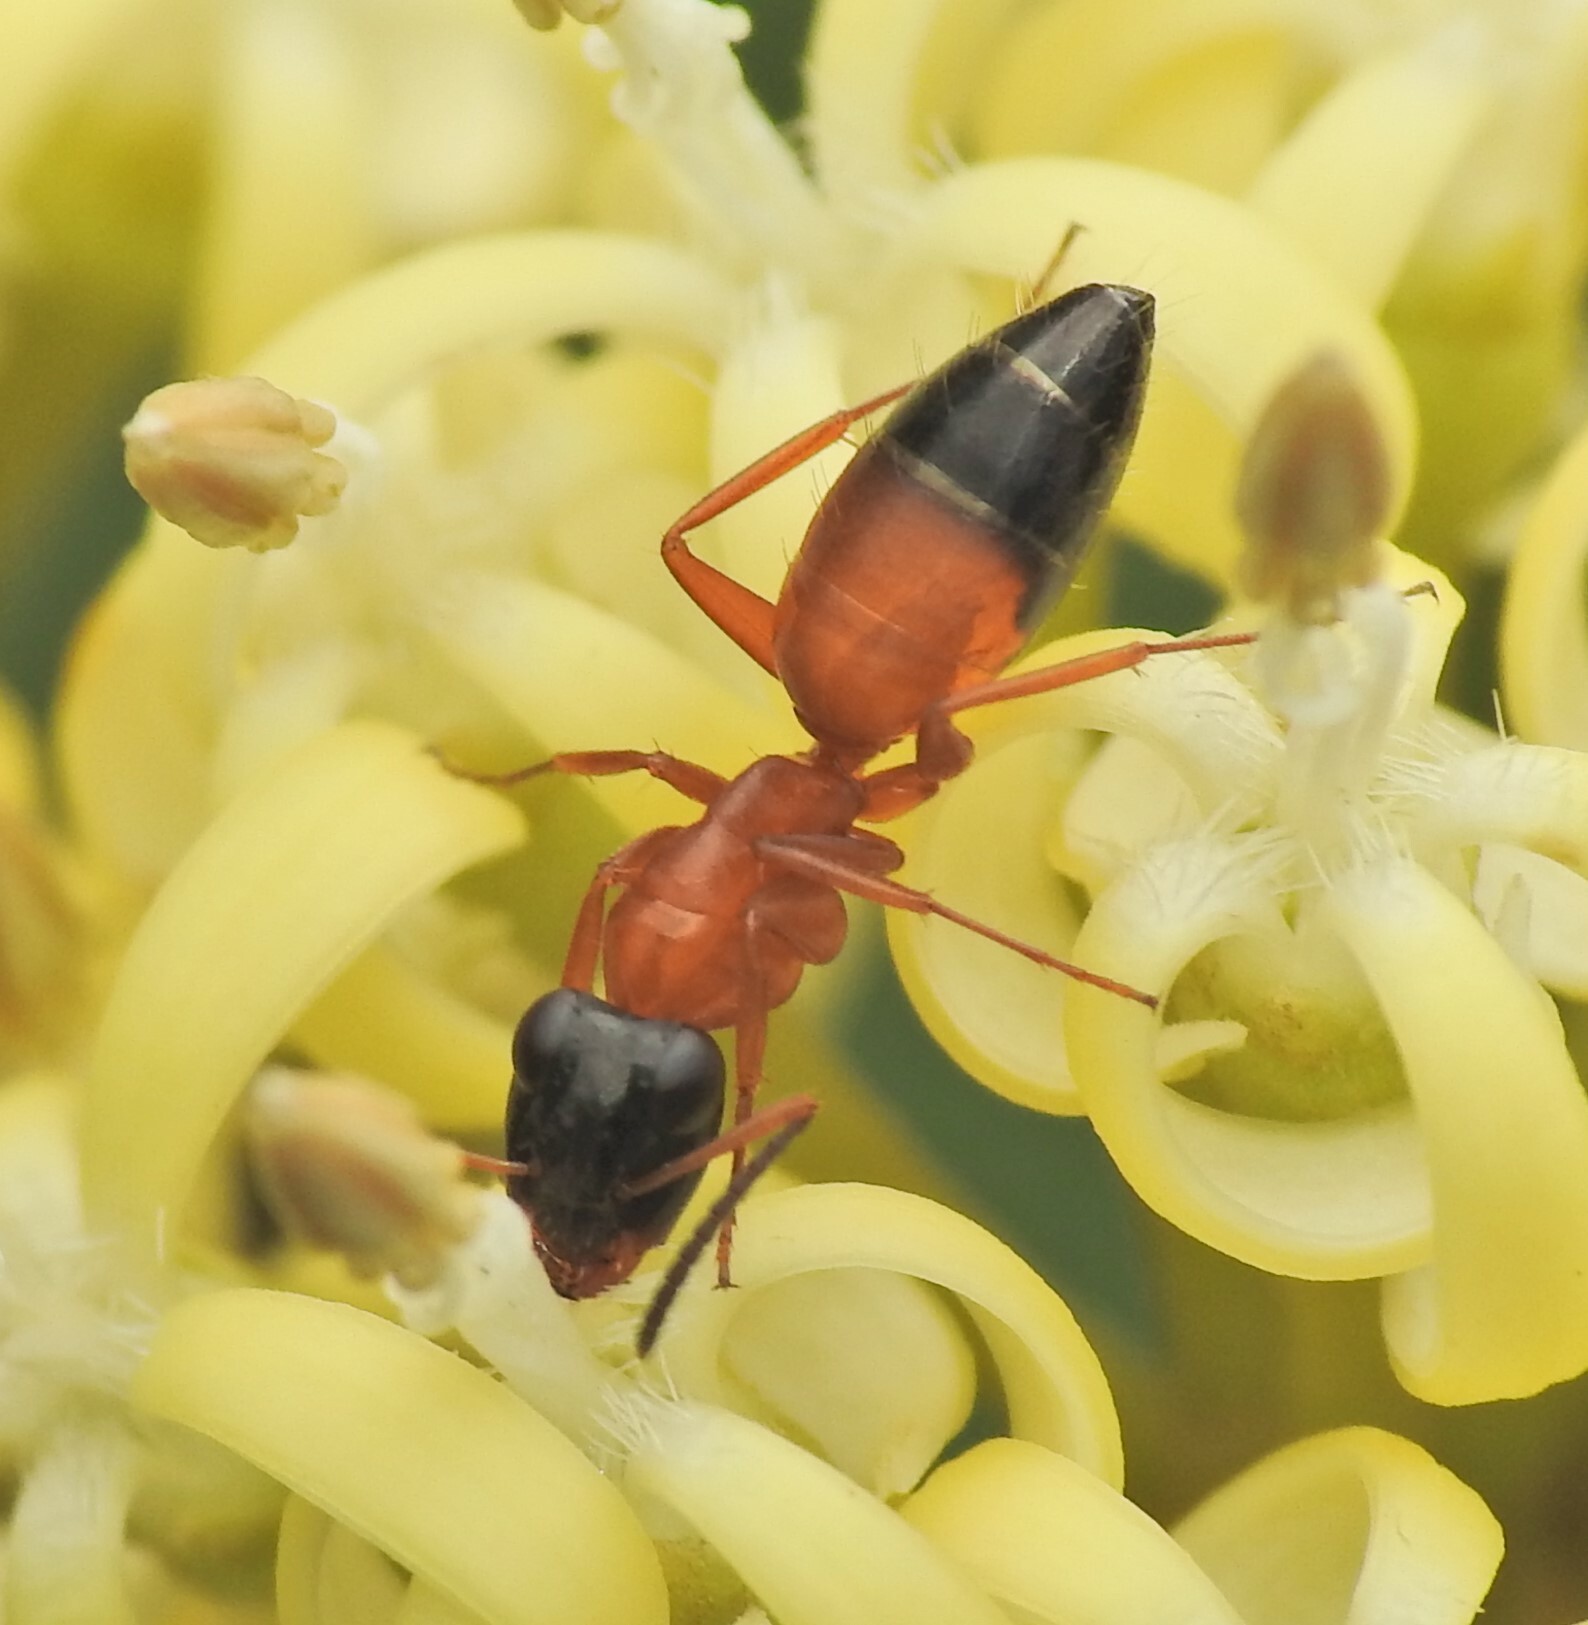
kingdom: Animalia
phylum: Arthropoda
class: Insecta
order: Hymenoptera
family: Formicidae
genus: Opisthopsis
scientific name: Opisthopsis rufithorax
